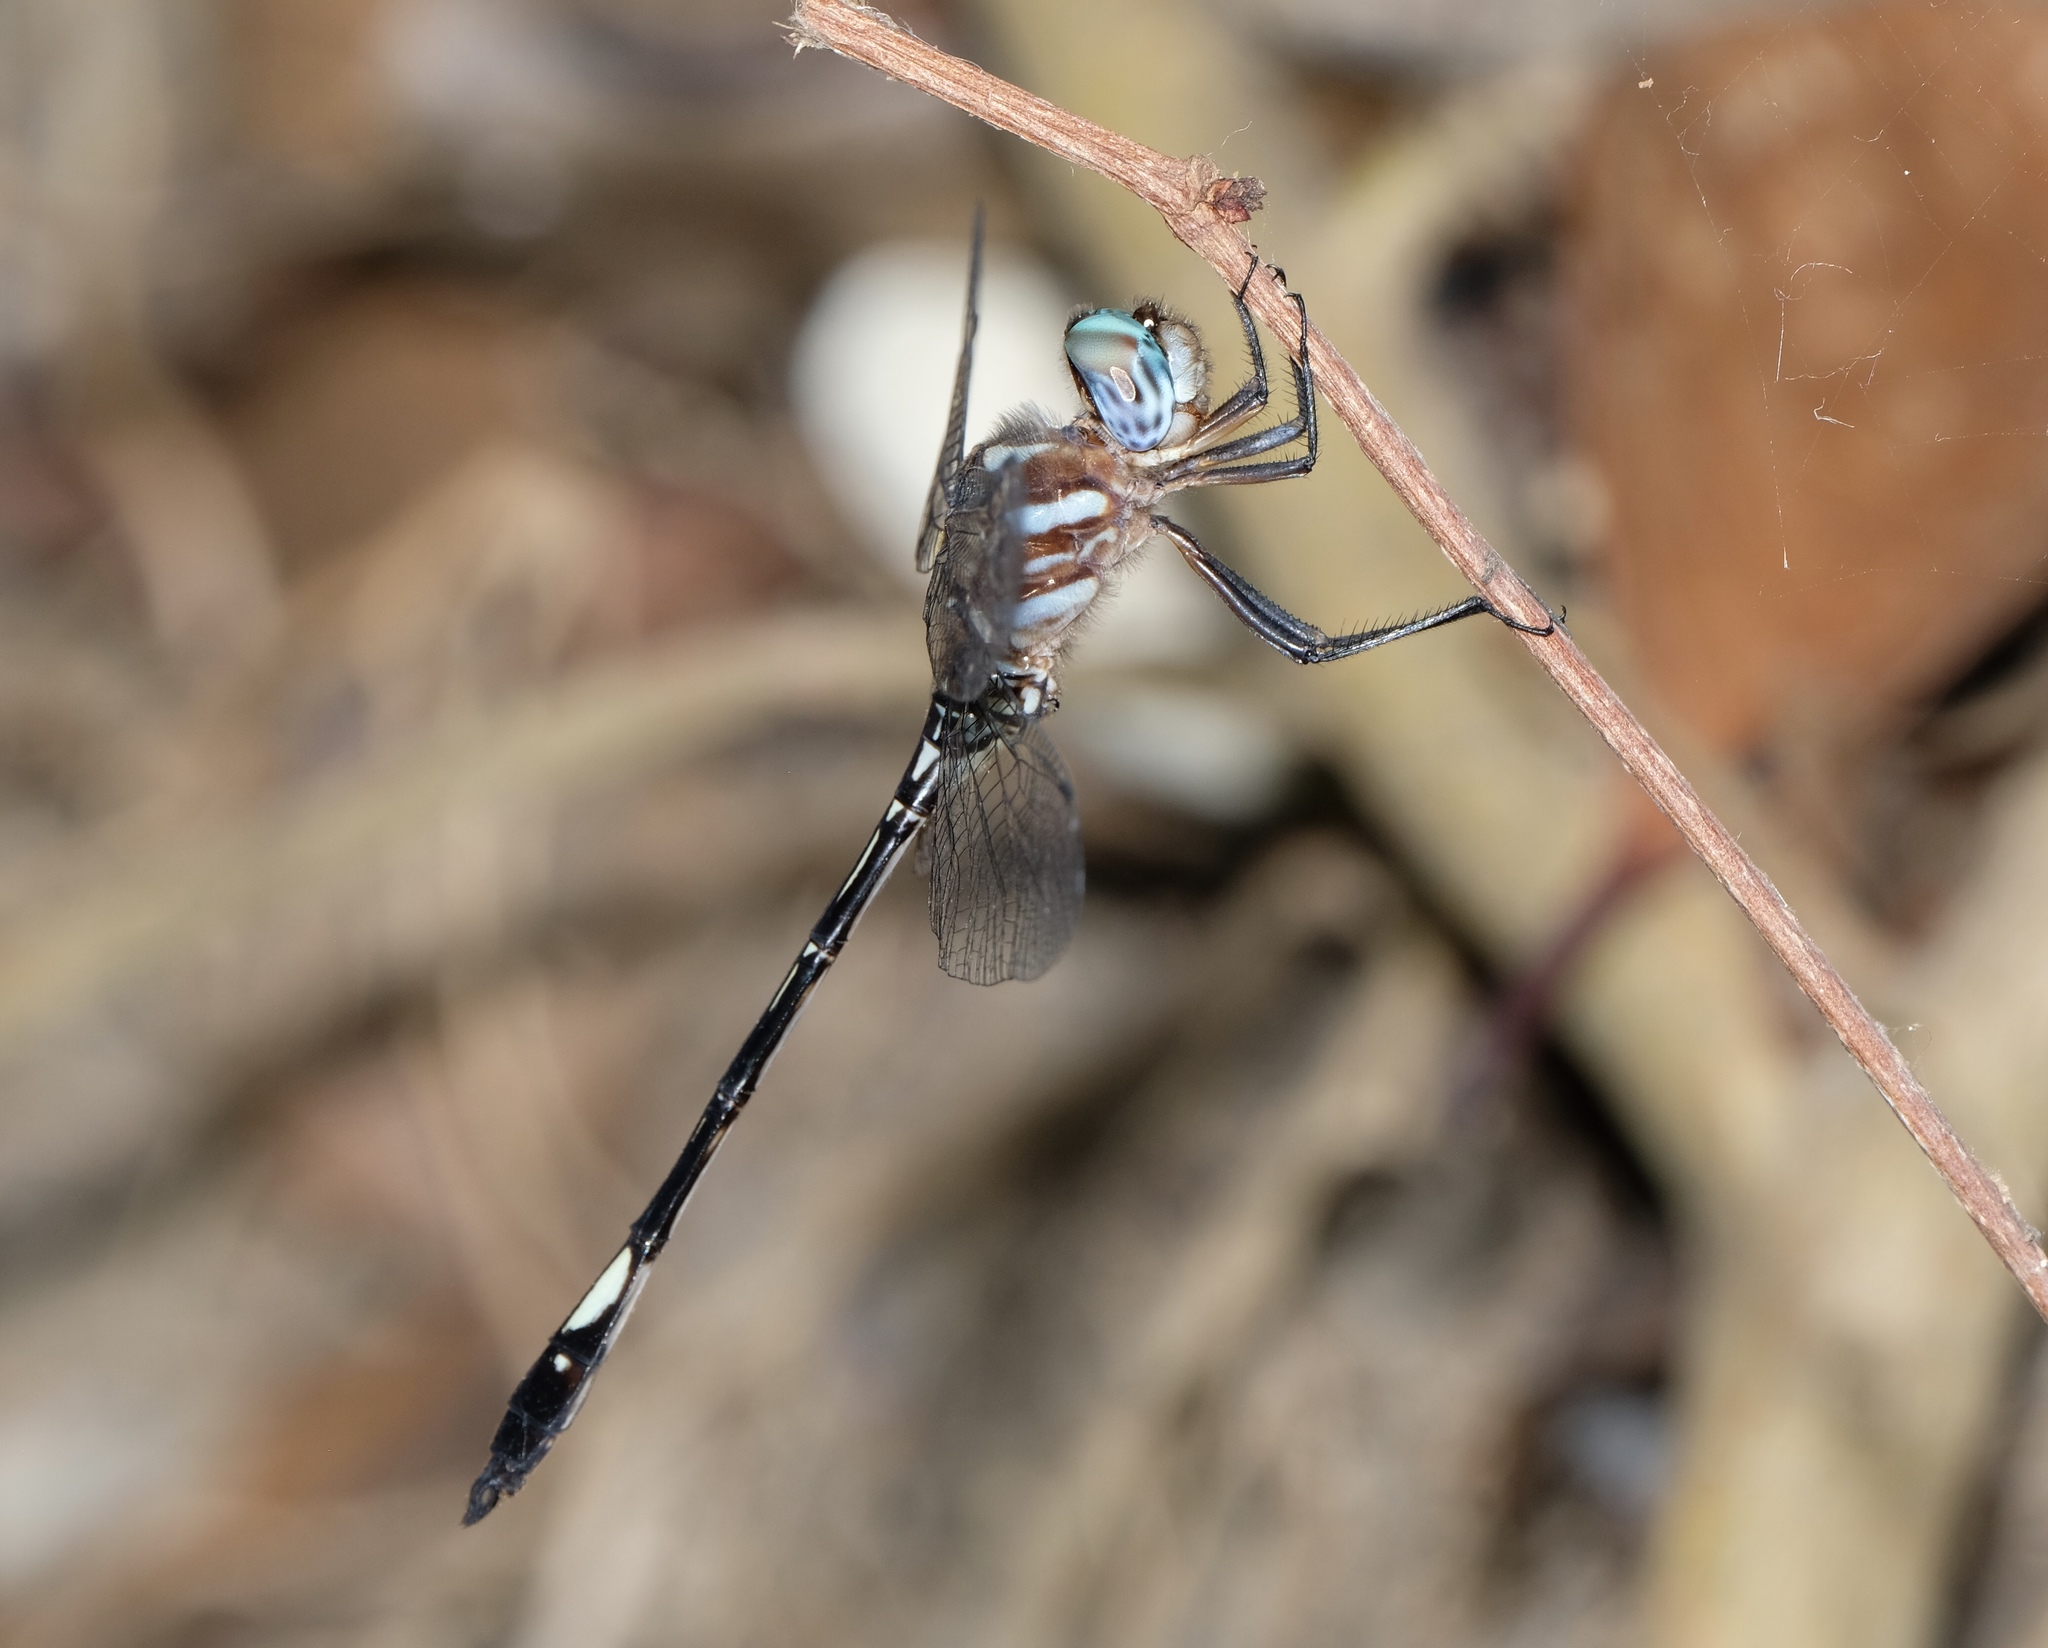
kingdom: Animalia
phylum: Arthropoda
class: Insecta
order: Odonata
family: Libellulidae
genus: Brechmorhoga
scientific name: Brechmorhoga mendax
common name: Pale-faced clubskimmer
